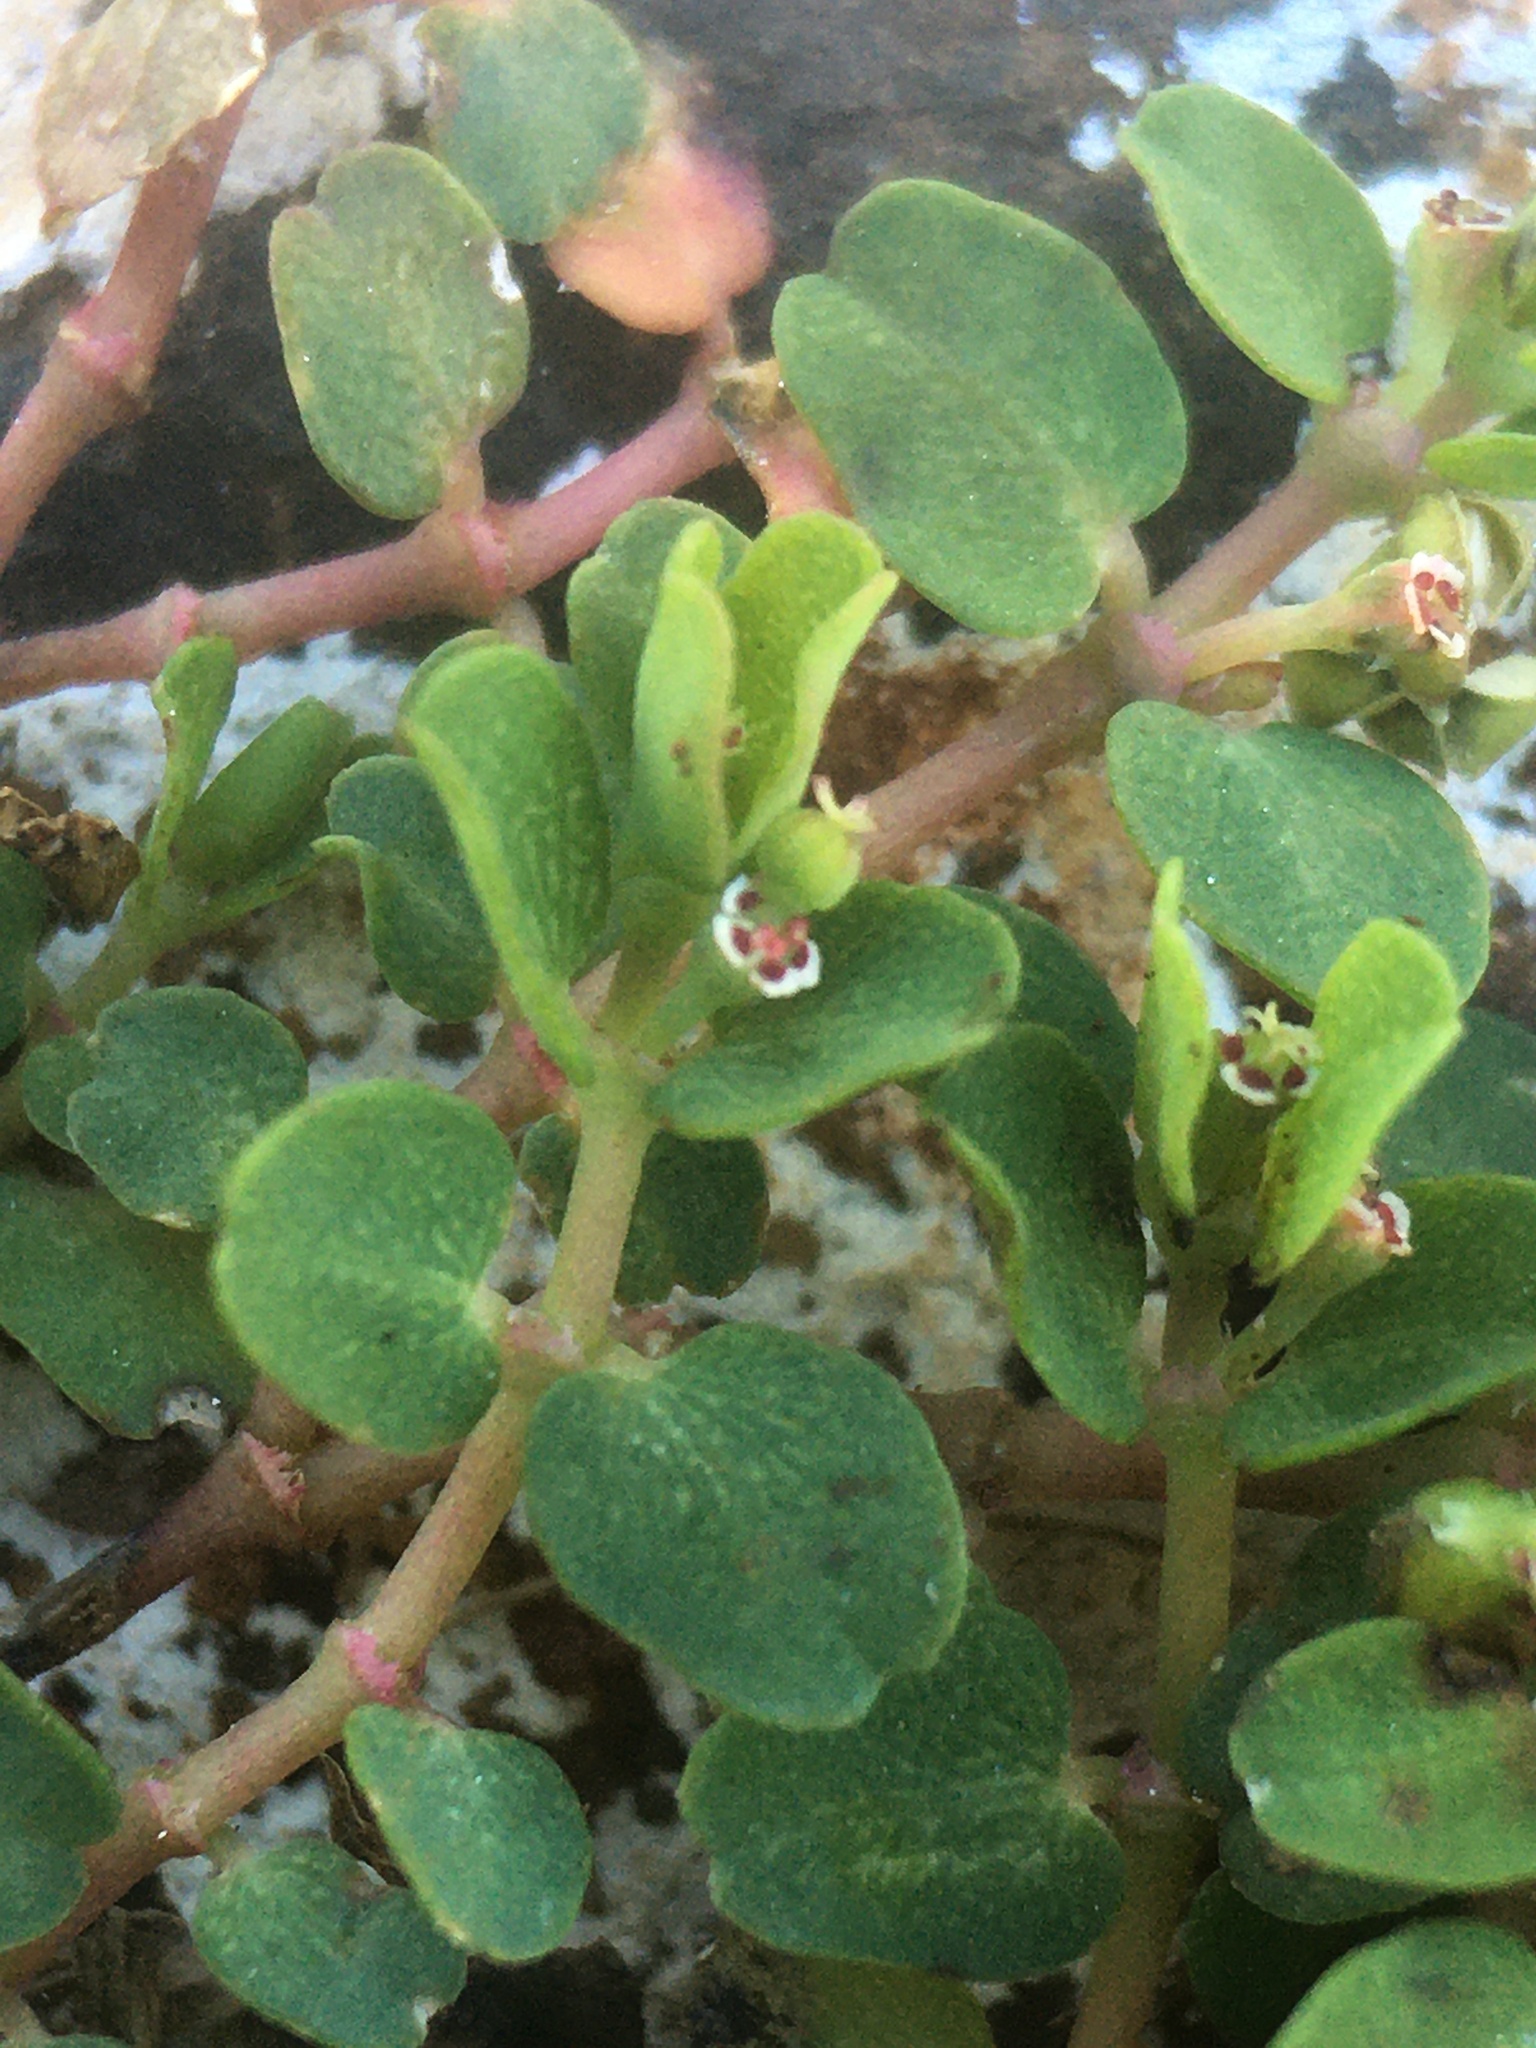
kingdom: Plantae
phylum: Tracheophyta
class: Magnoliopsida
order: Malpighiales
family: Euphorbiaceae
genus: Euphorbia
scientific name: Euphorbia serpens
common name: Matted sandmat
